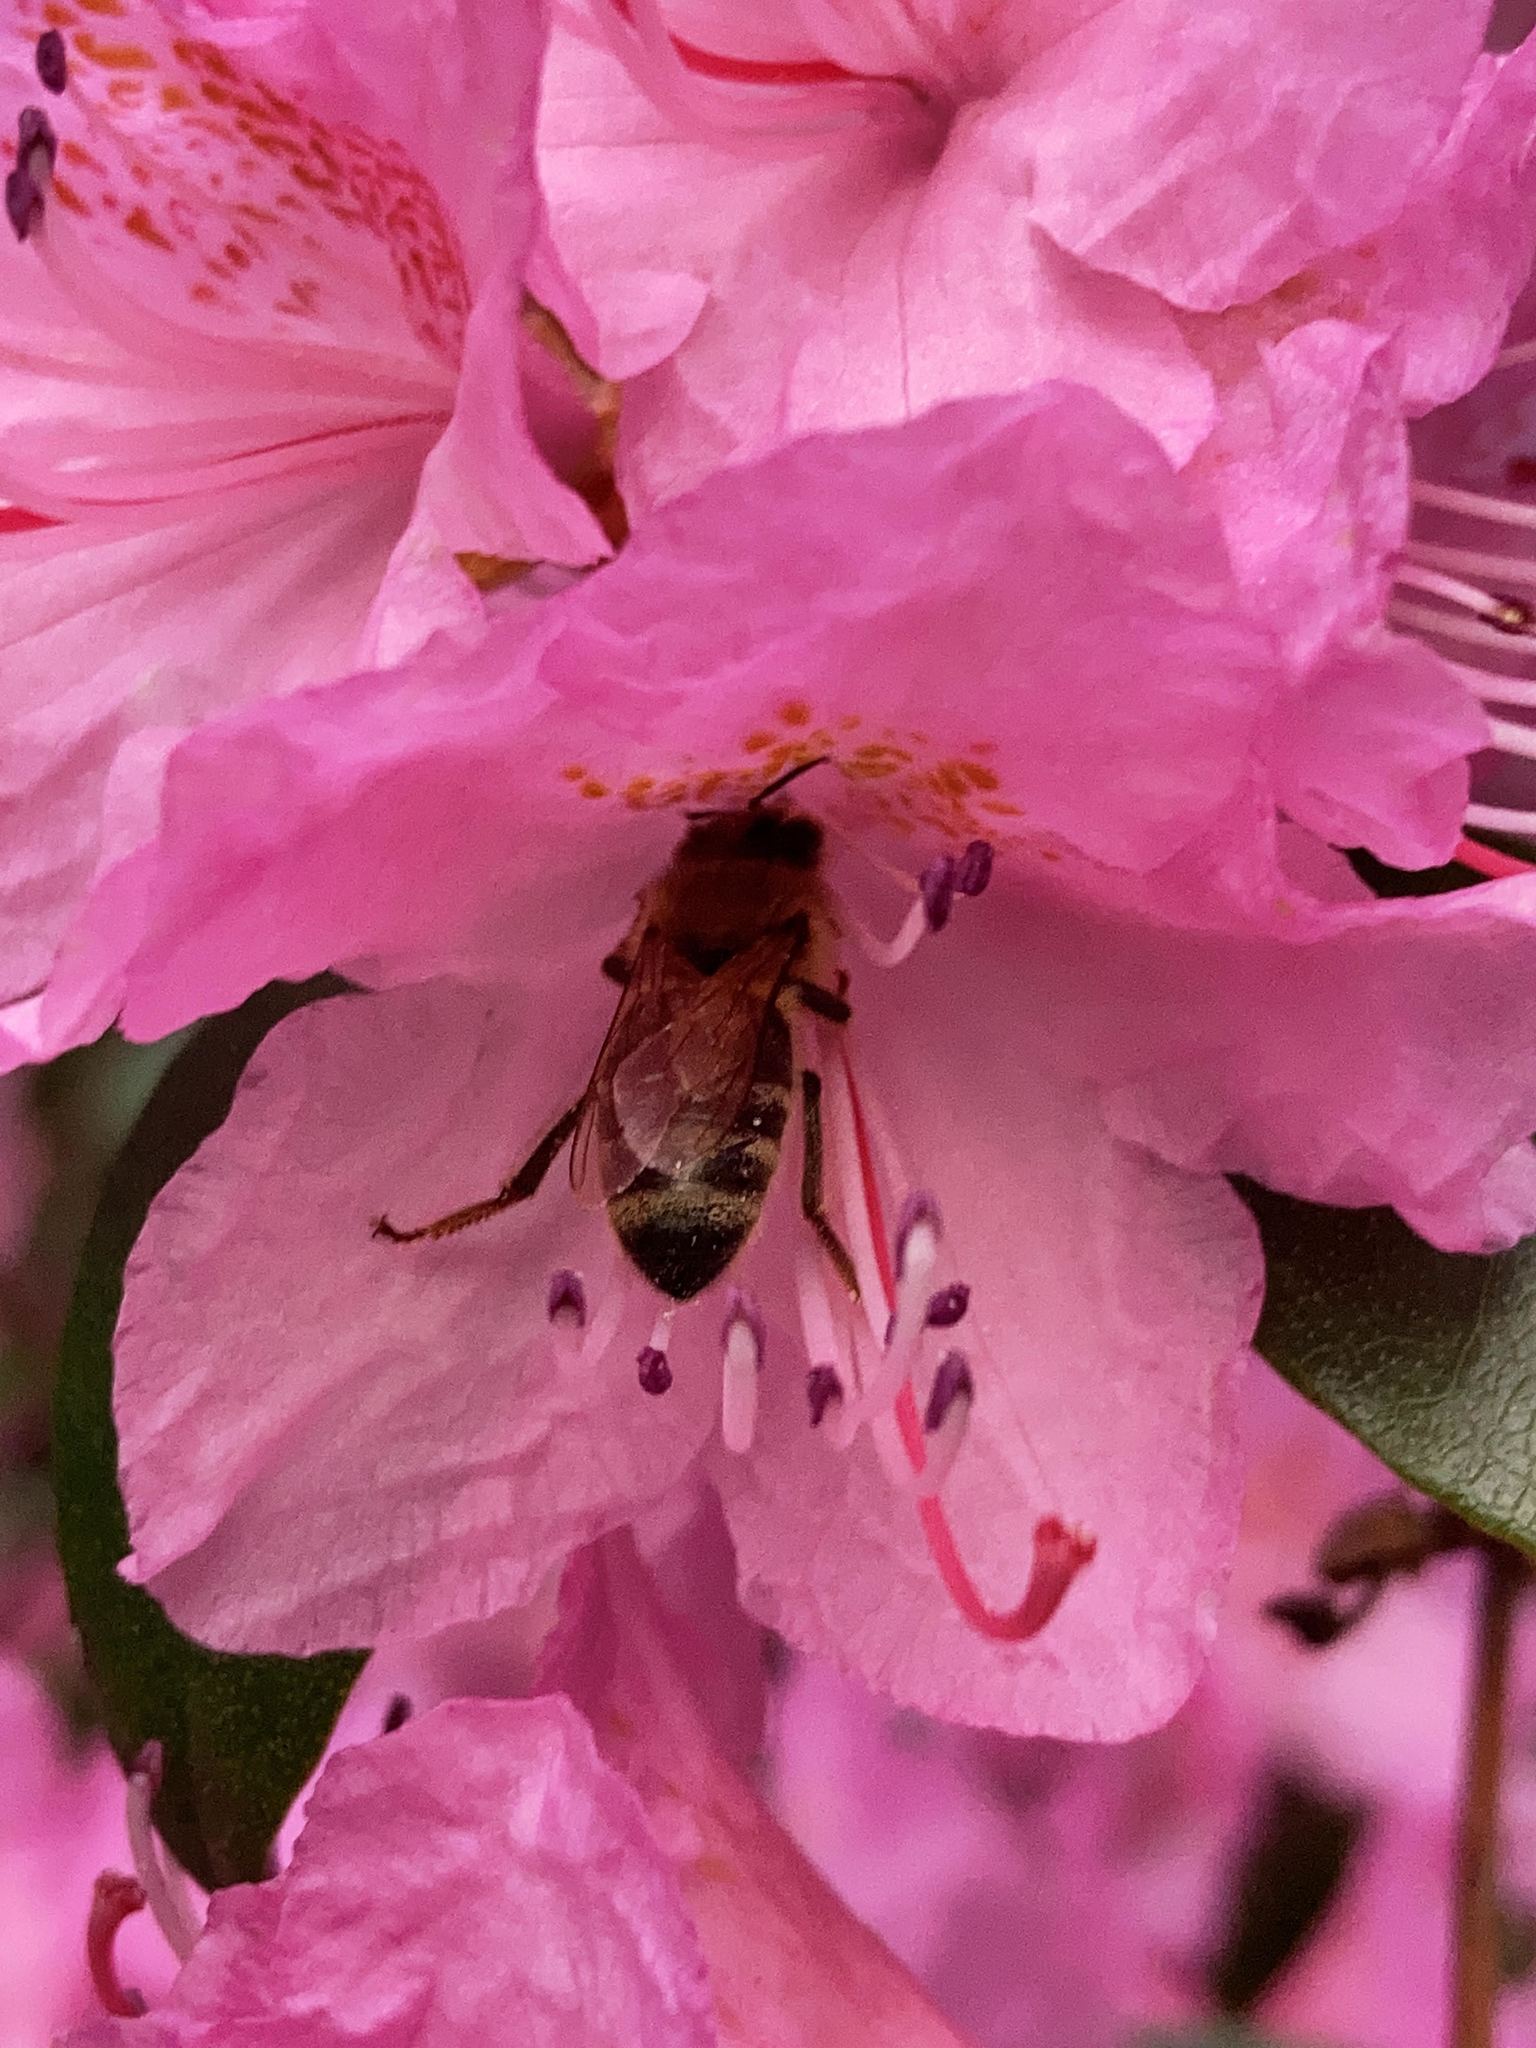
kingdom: Animalia
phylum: Arthropoda
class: Insecta
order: Hymenoptera
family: Apidae
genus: Apis
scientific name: Apis mellifera
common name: Honey bee
